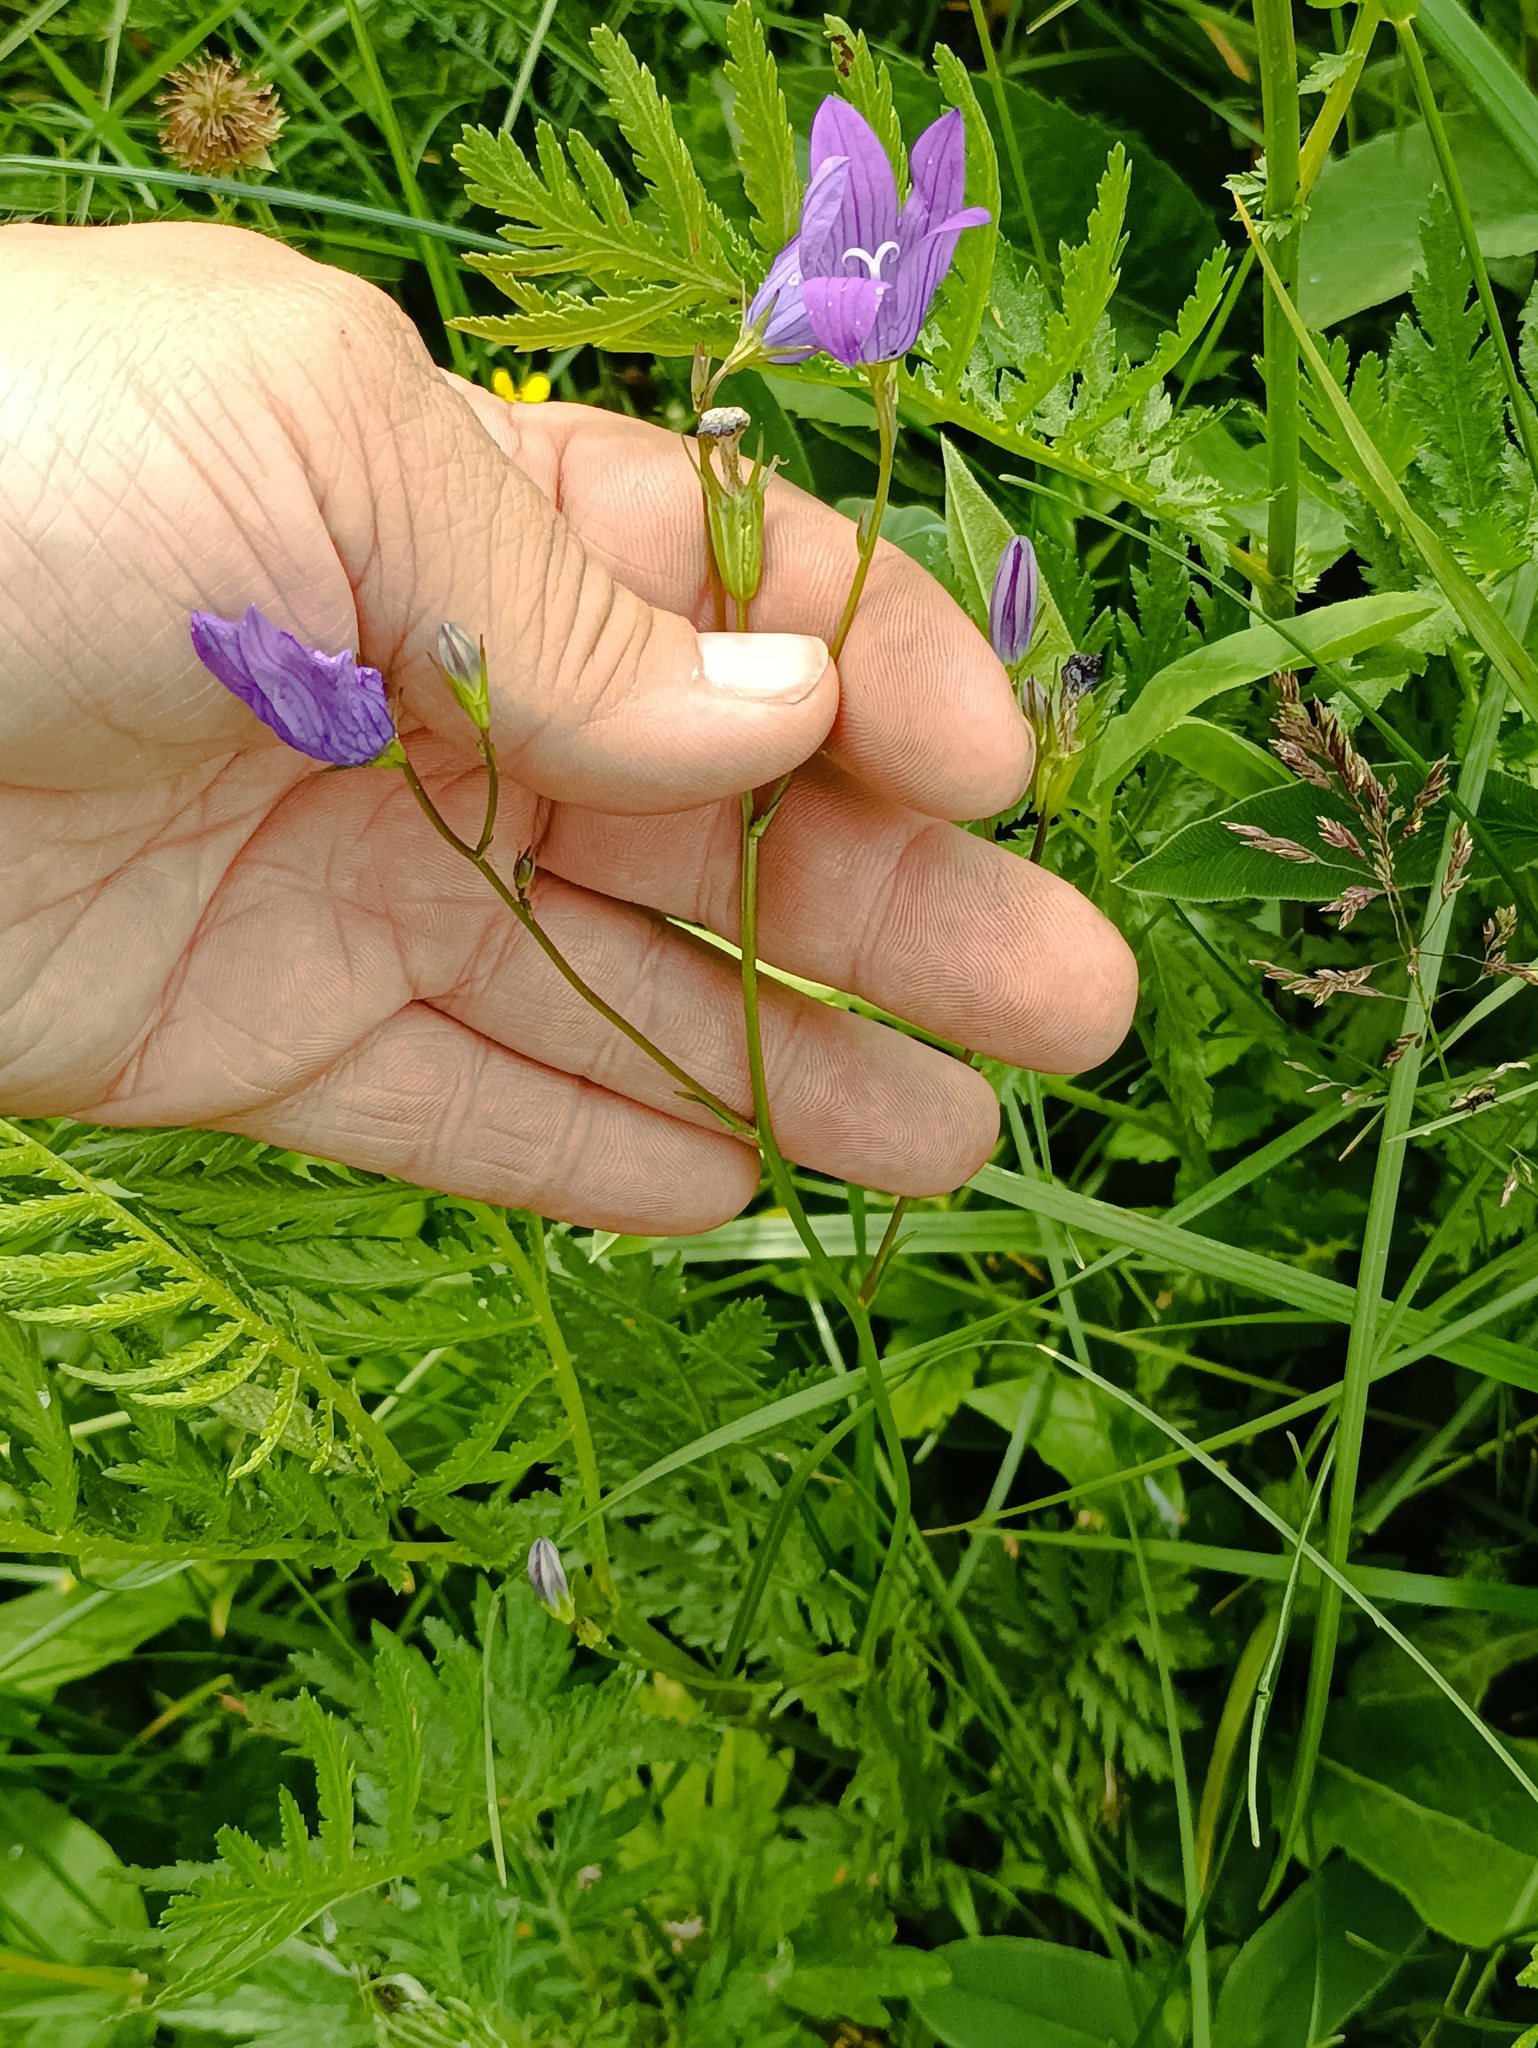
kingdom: Plantae
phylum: Tracheophyta
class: Magnoliopsida
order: Asterales
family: Campanulaceae
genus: Campanula
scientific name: Campanula patula
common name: Spreading bellflower
